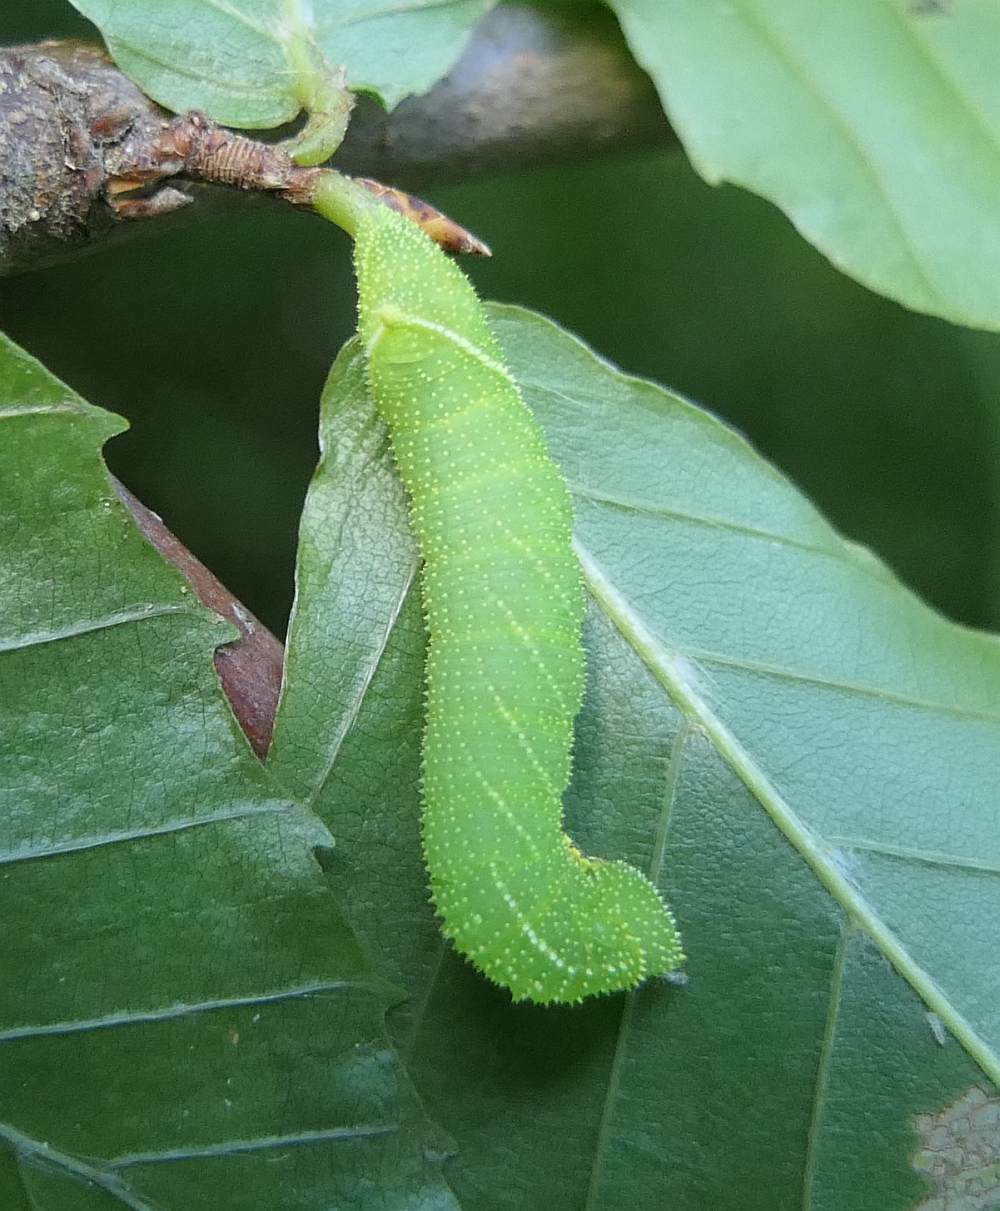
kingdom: Animalia
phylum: Arthropoda
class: Insecta
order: Lepidoptera
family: Sphingidae
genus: Paonias
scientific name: Paonias excaecata
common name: Blind-eyed sphinx
